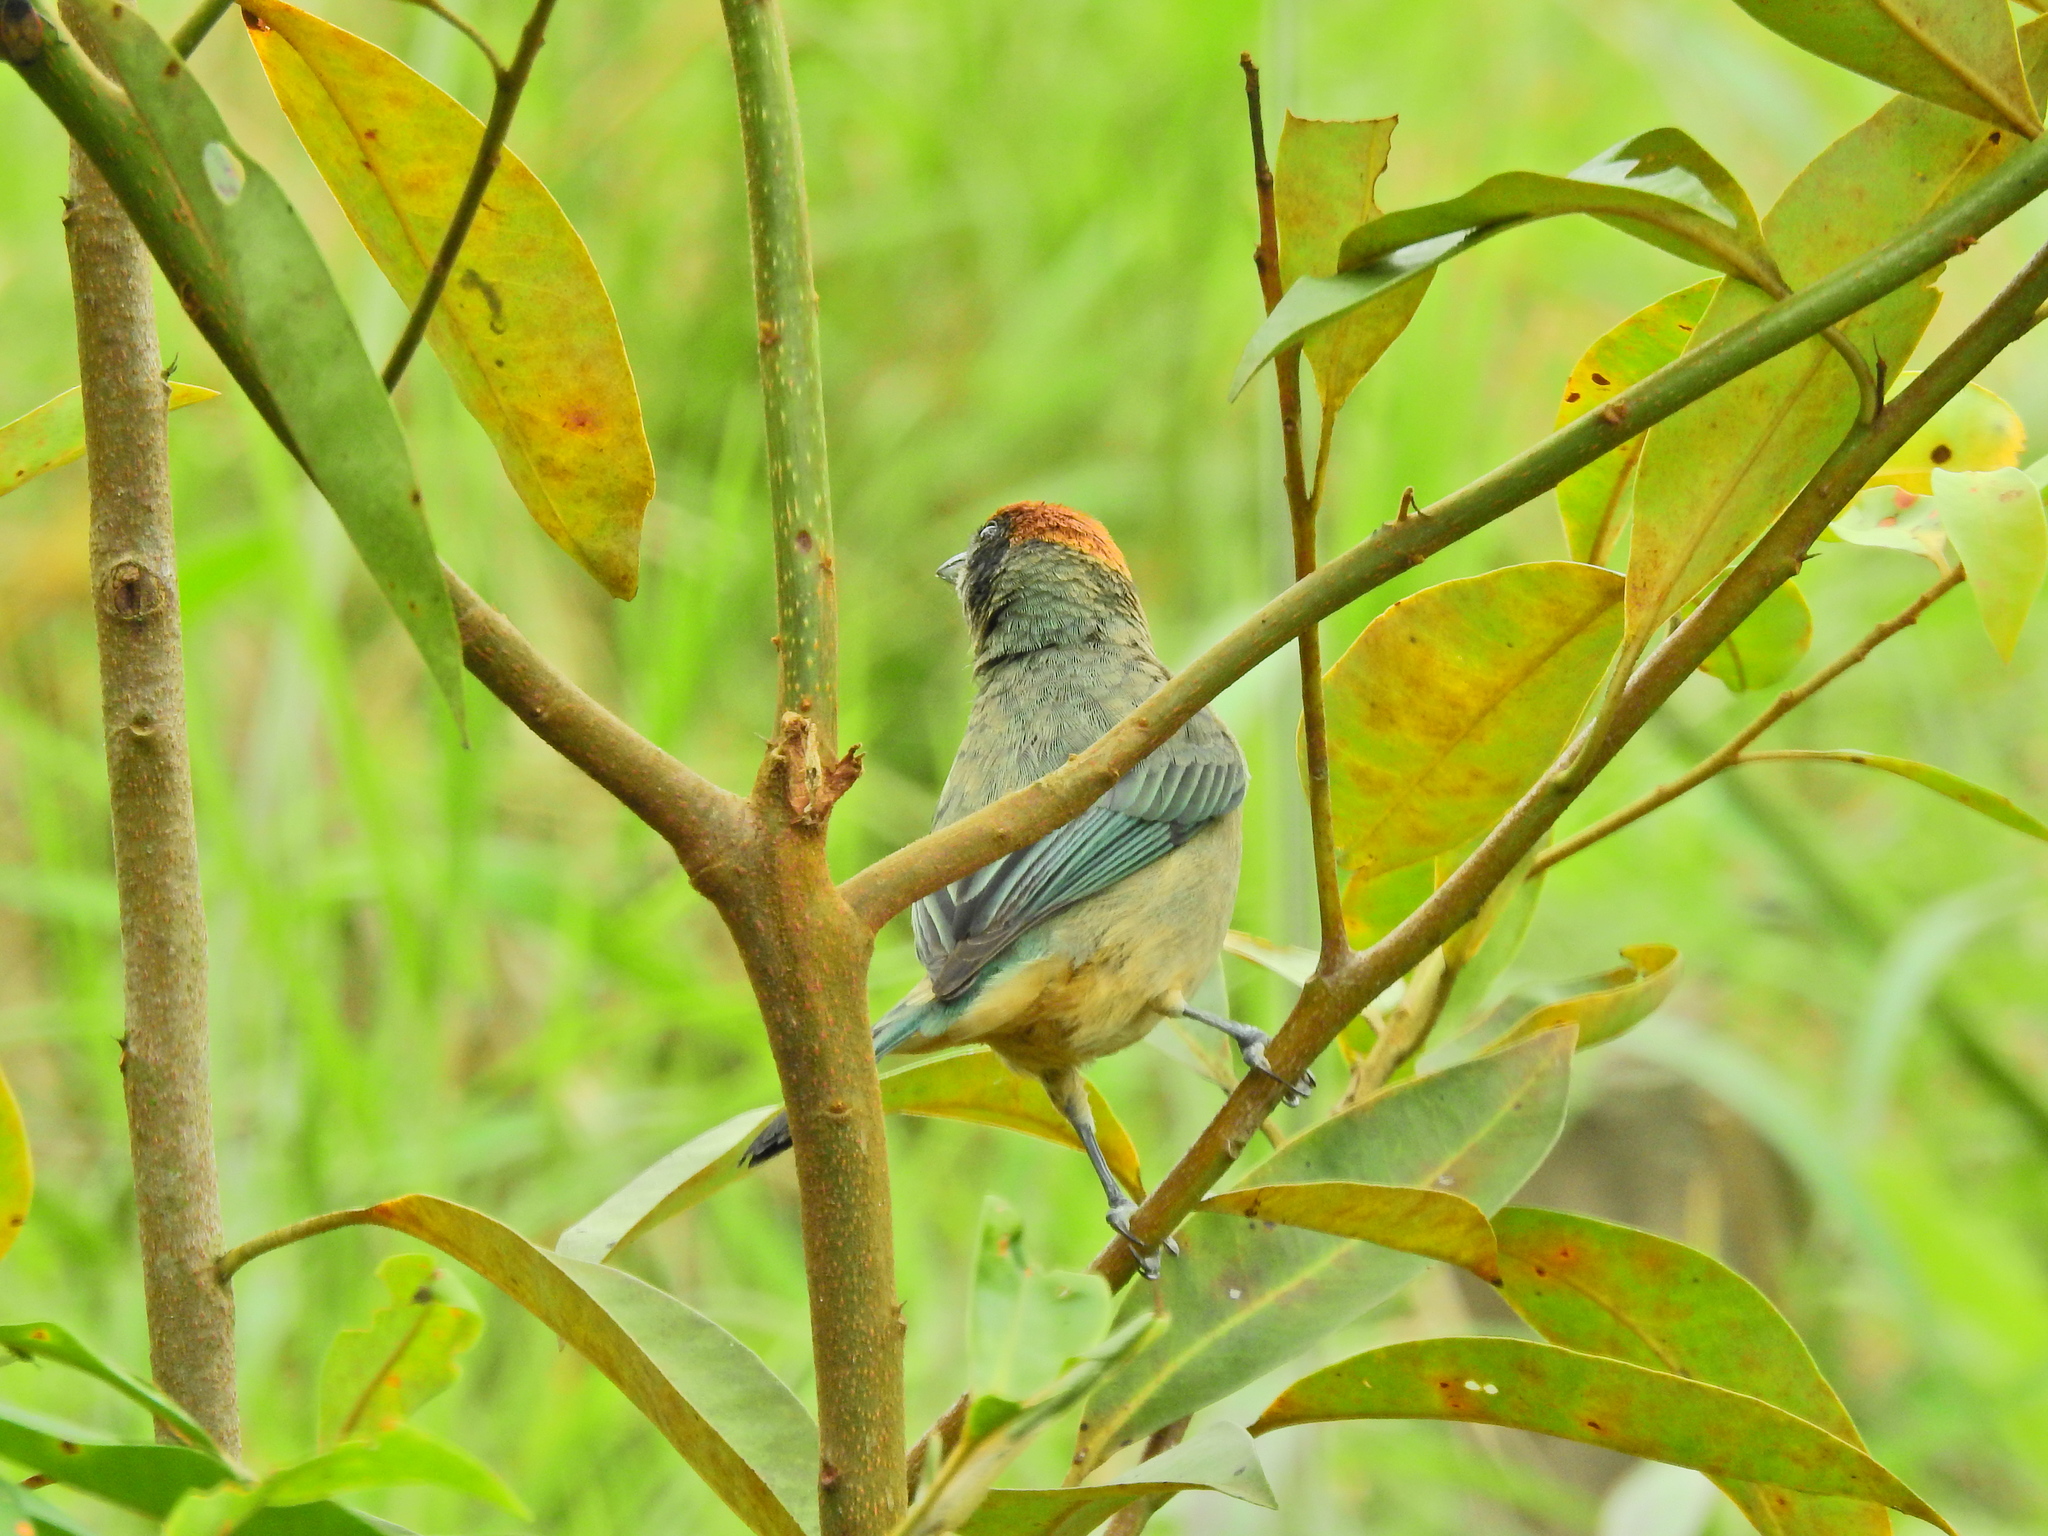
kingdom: Animalia
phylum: Chordata
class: Aves
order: Passeriformes
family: Thraupidae
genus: Stilpnia
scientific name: Stilpnia vitriolina
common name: Scrub tanager
